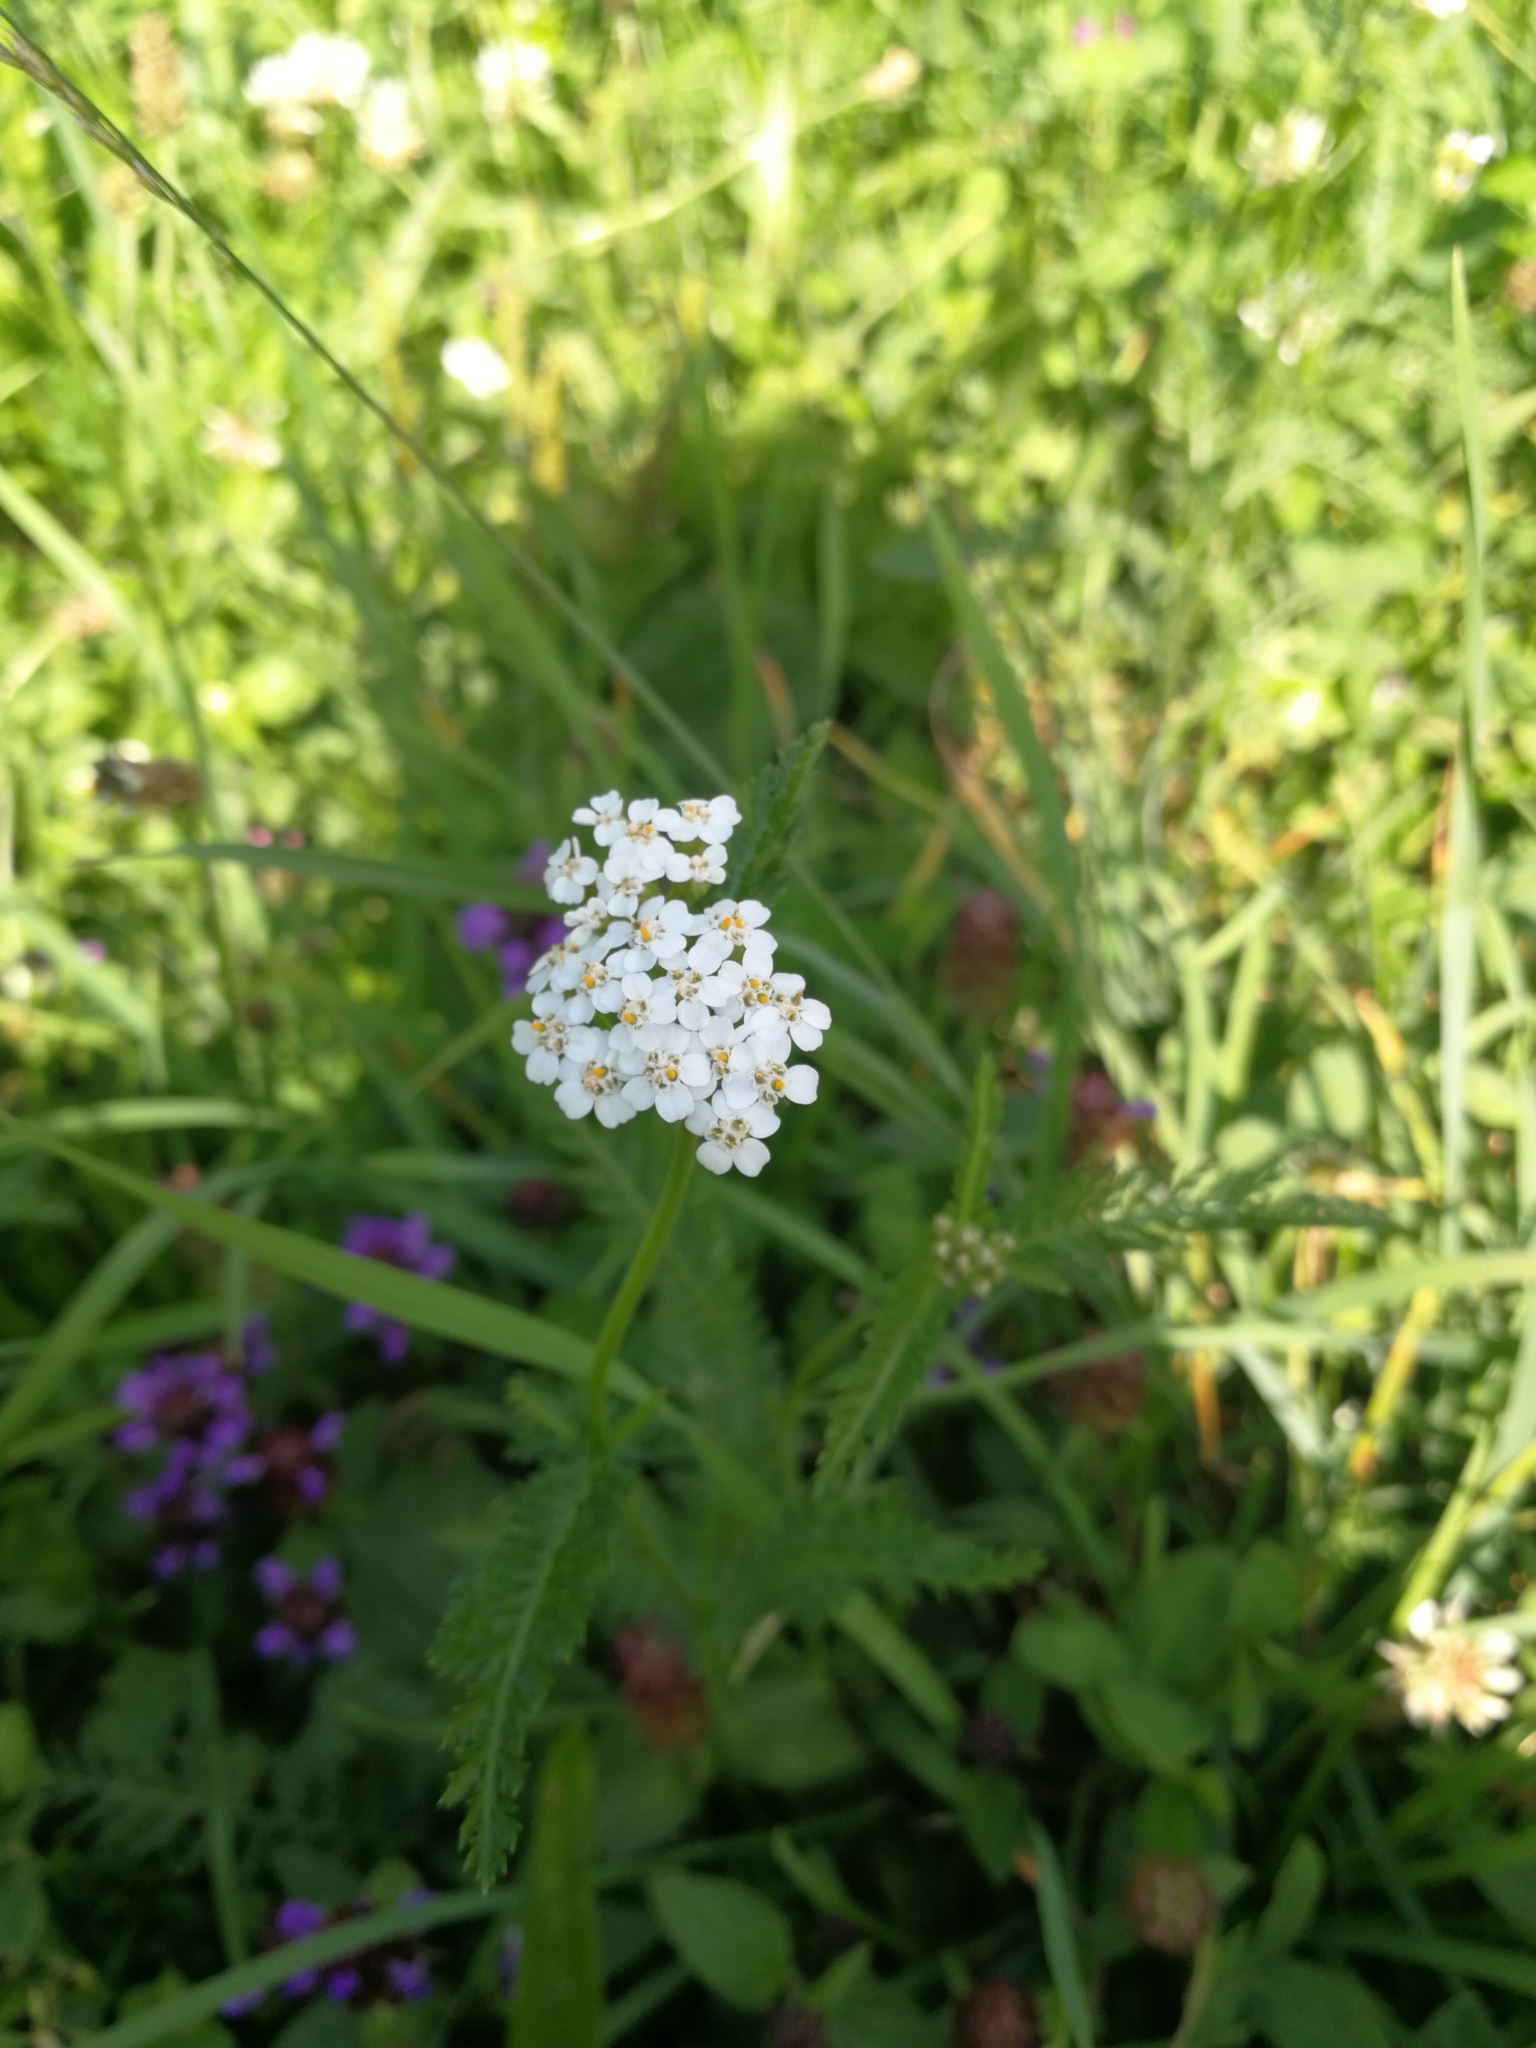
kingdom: Plantae
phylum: Tracheophyta
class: Magnoliopsida
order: Asterales
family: Asteraceae
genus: Achillea
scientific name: Achillea millefolium
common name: Yarrow
